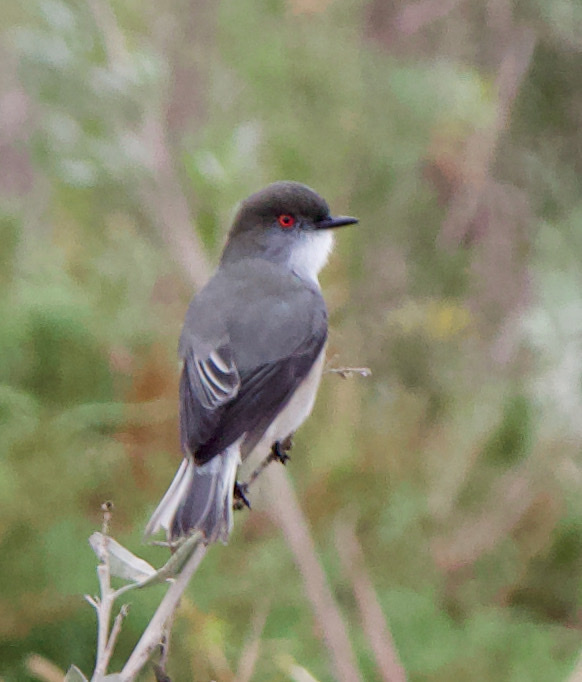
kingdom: Animalia
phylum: Chordata
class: Aves
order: Passeriformes
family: Tyrannidae
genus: Xolmis
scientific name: Xolmis pyrope
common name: Fire-eyed diucon
